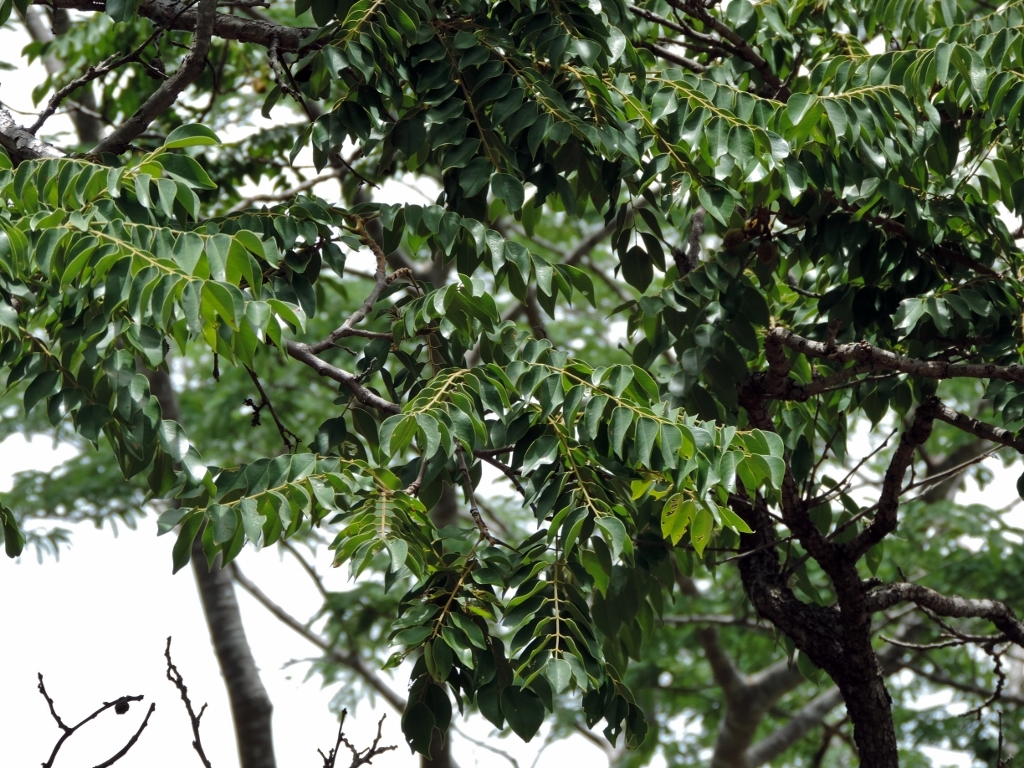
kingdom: Plantae
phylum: Tracheophyta
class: Magnoliopsida
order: Fabales
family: Fabaceae
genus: Pterocarpus
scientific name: Pterocarpus angolensis
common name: Bloodwood tree
